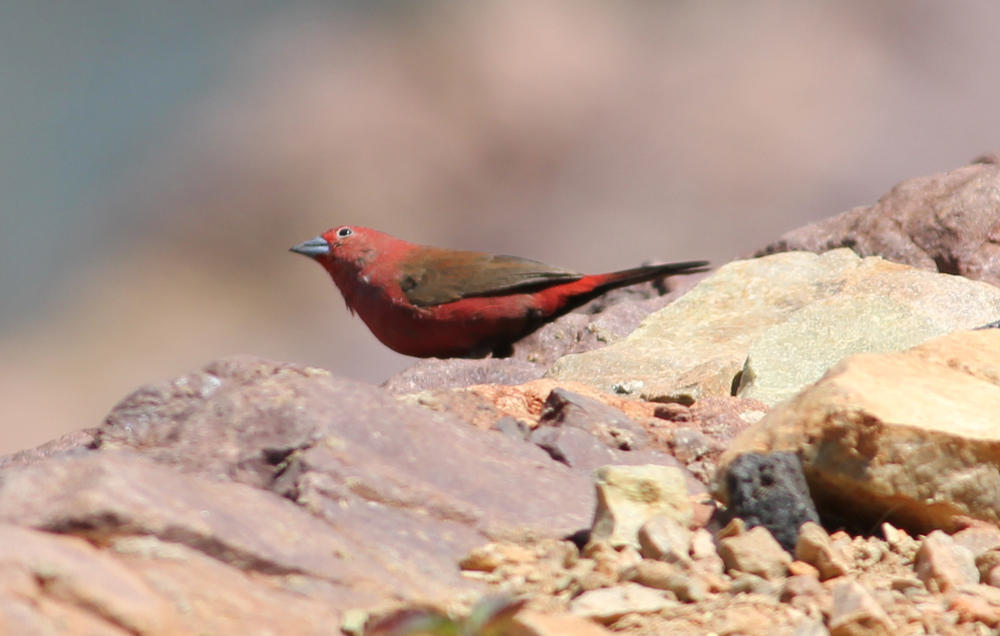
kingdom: Animalia
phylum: Chordata
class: Aves
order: Passeriformes
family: Estrildidae
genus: Lagonosticta
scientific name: Lagonosticta rhodopareia
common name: Jameson's firefinch
